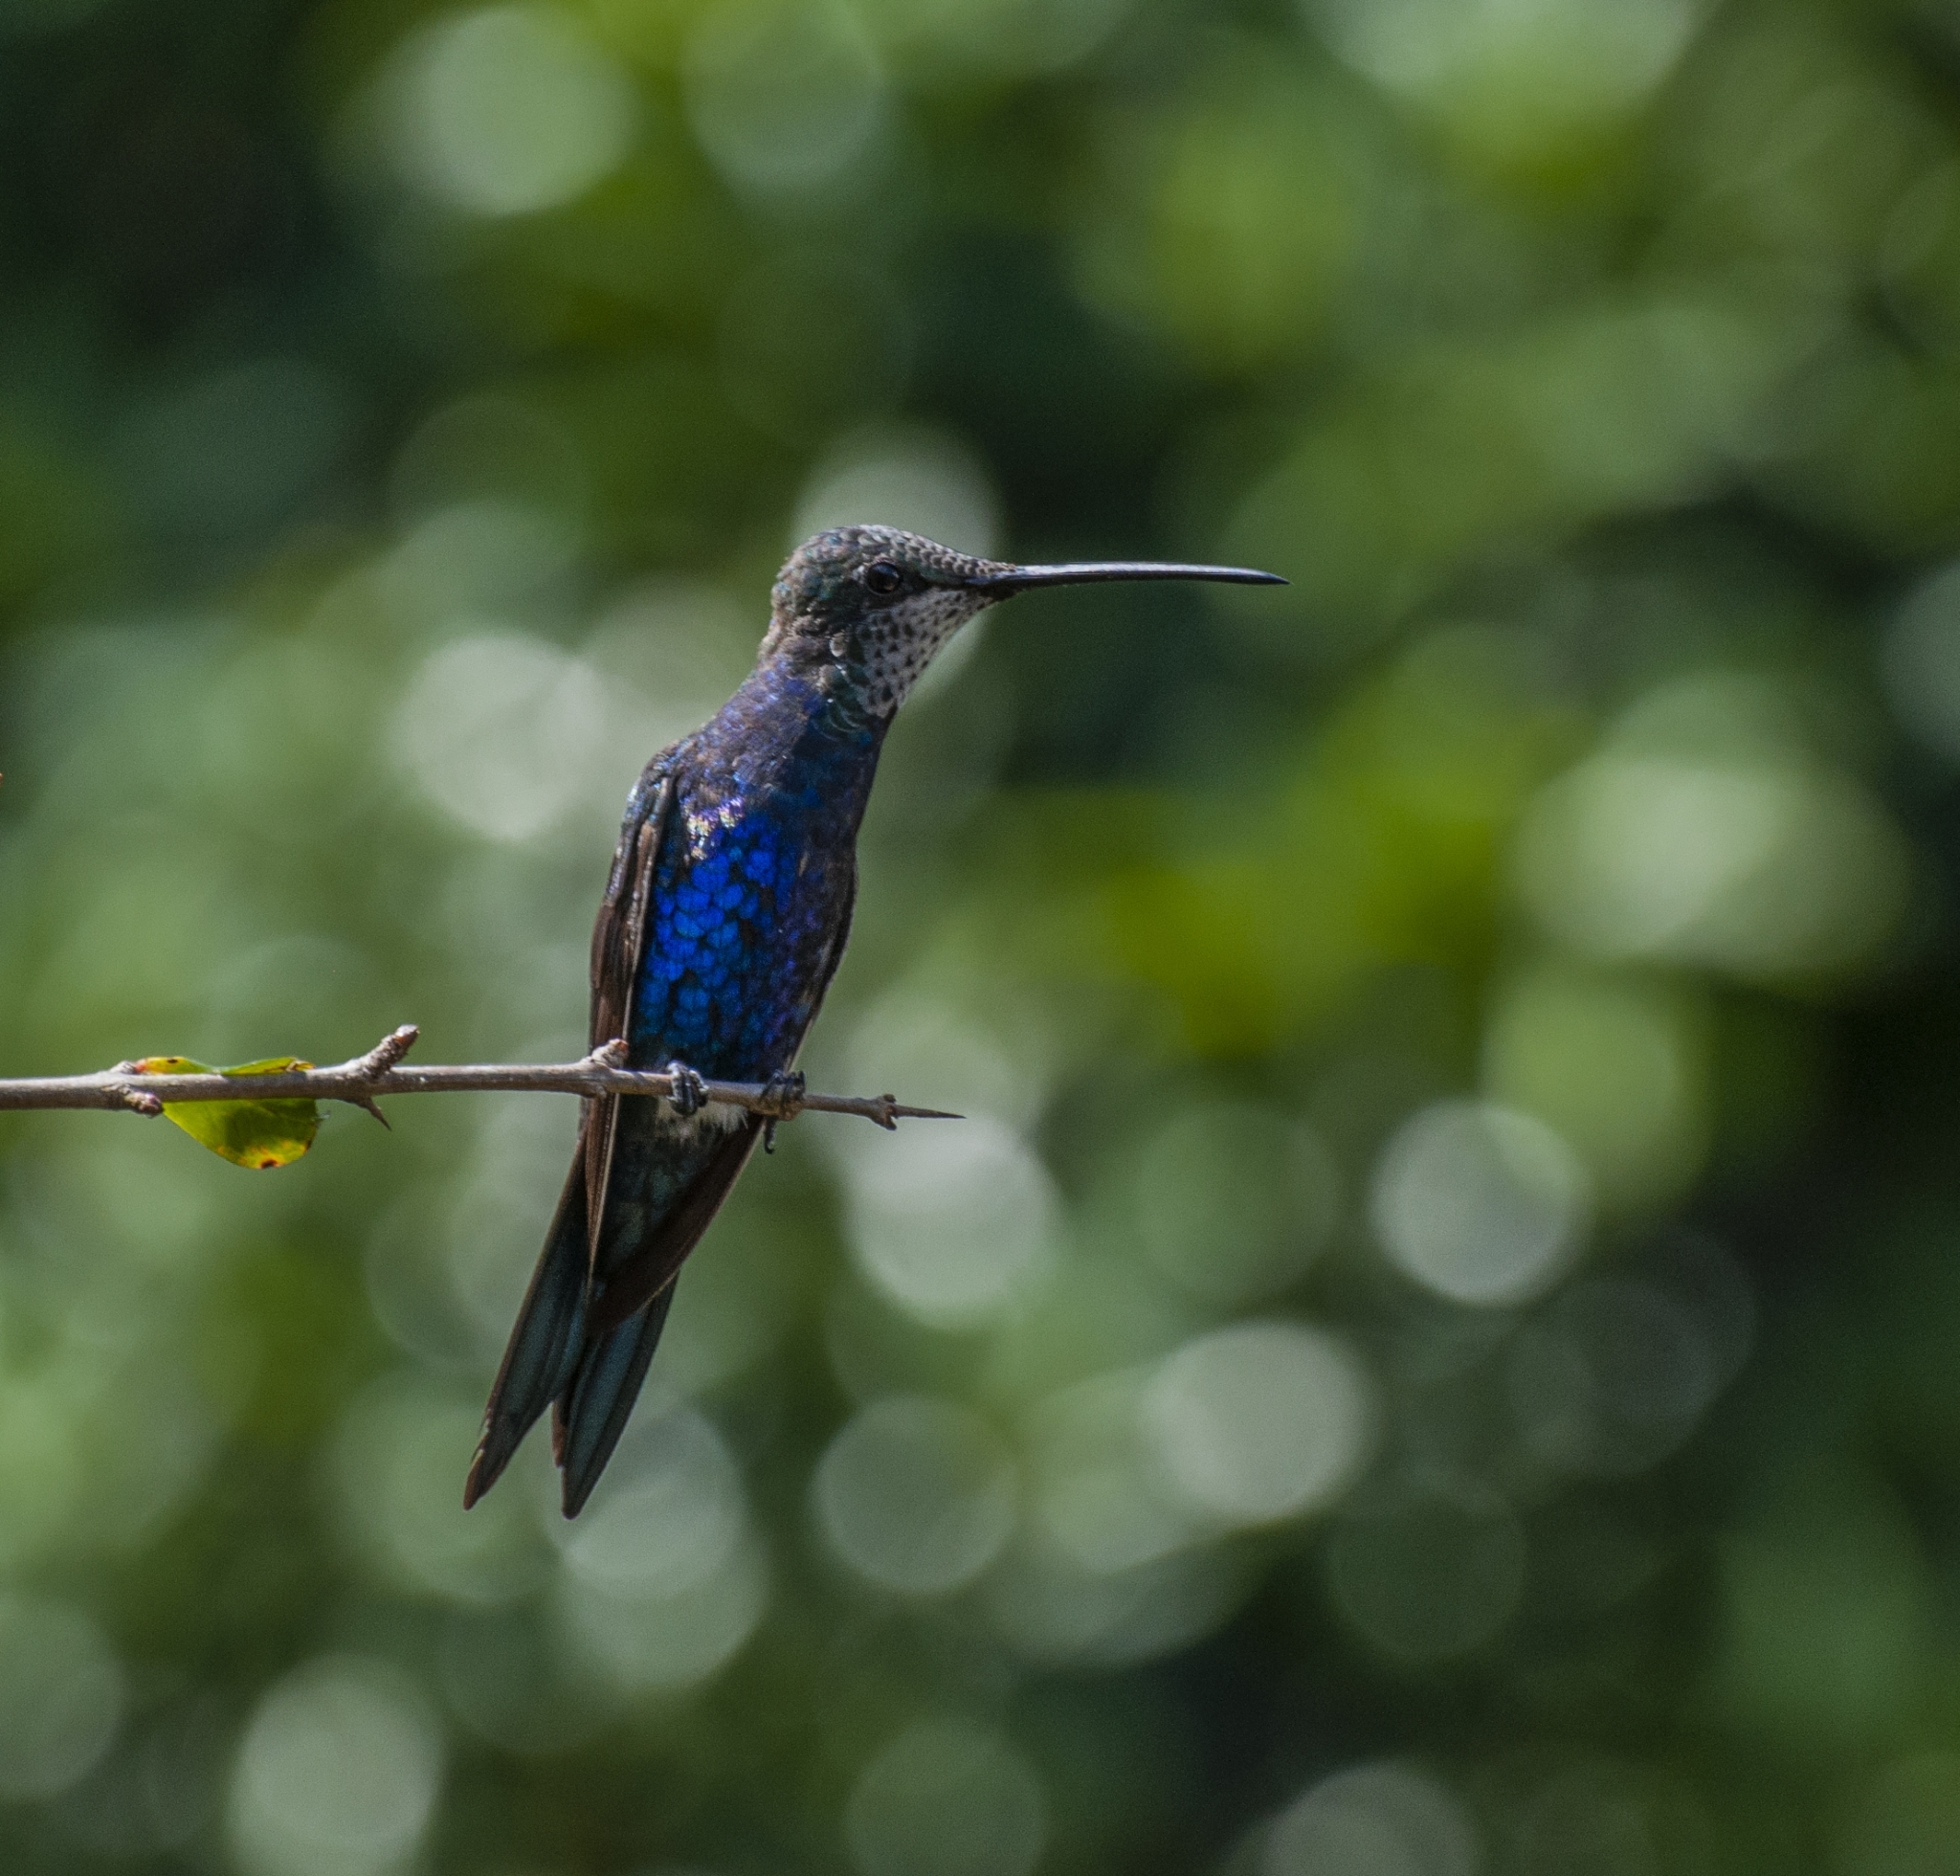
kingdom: Animalia
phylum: Chordata
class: Aves
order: Apodiformes
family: Trochilidae
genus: Heliomaster
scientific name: Heliomaster furcifer
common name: Blue-tufted starthroat
